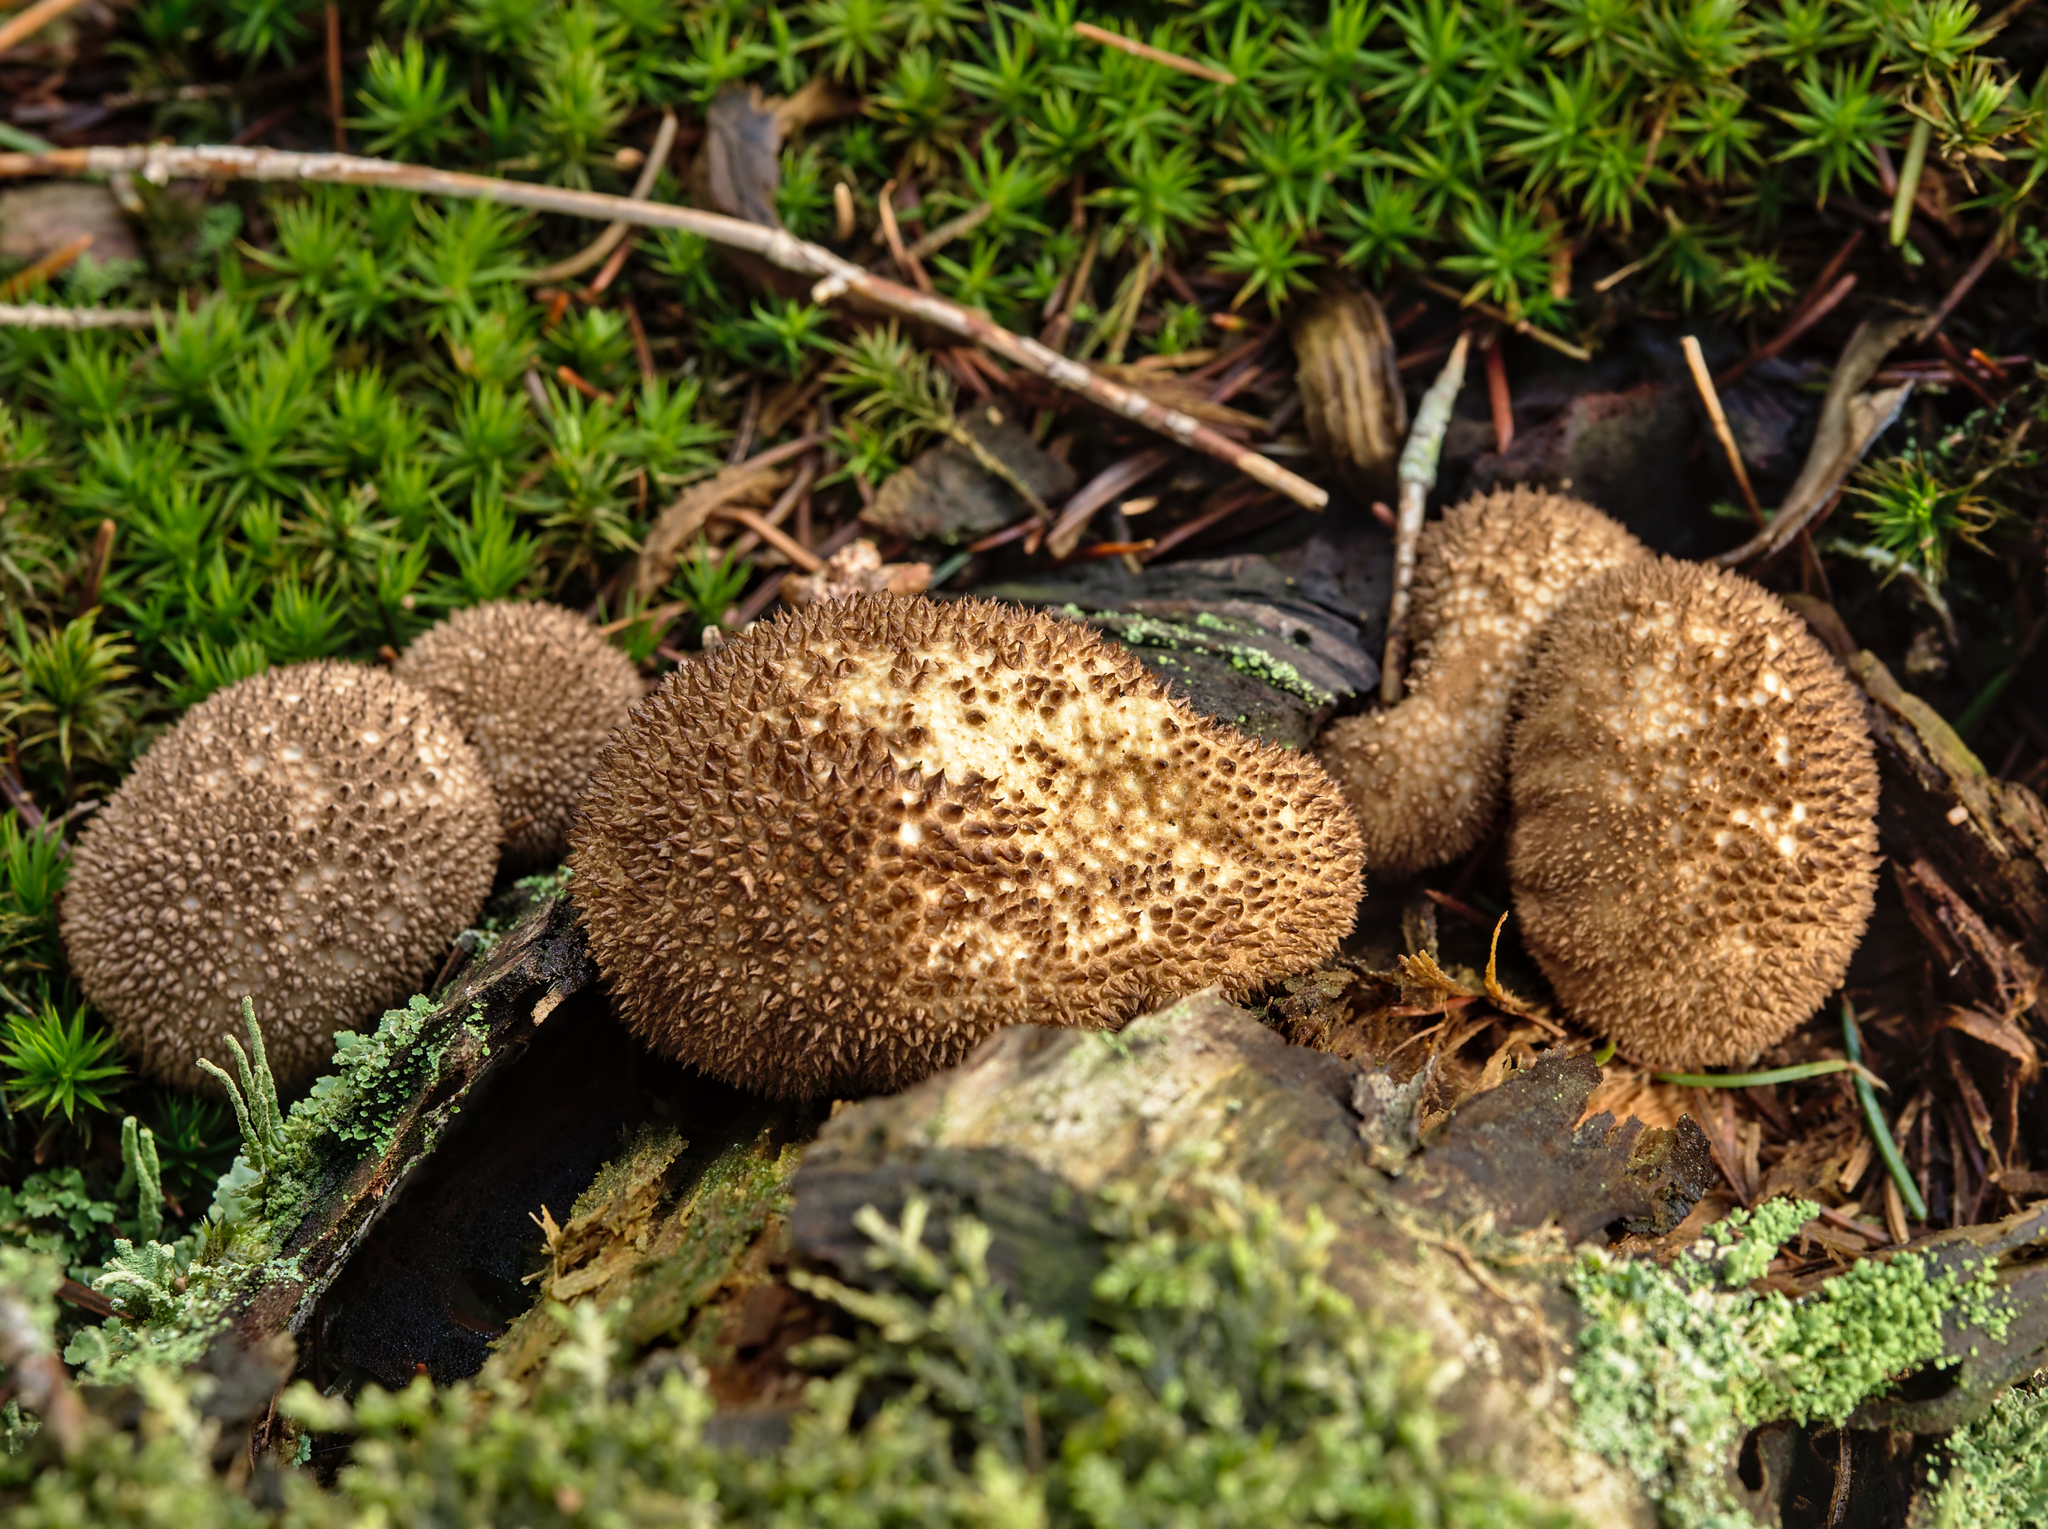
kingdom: Fungi
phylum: Basidiomycota
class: Agaricomycetes
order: Agaricales
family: Lycoperdaceae
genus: Lycoperdon
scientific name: Lycoperdon nigrescens
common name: Blackish puffball
